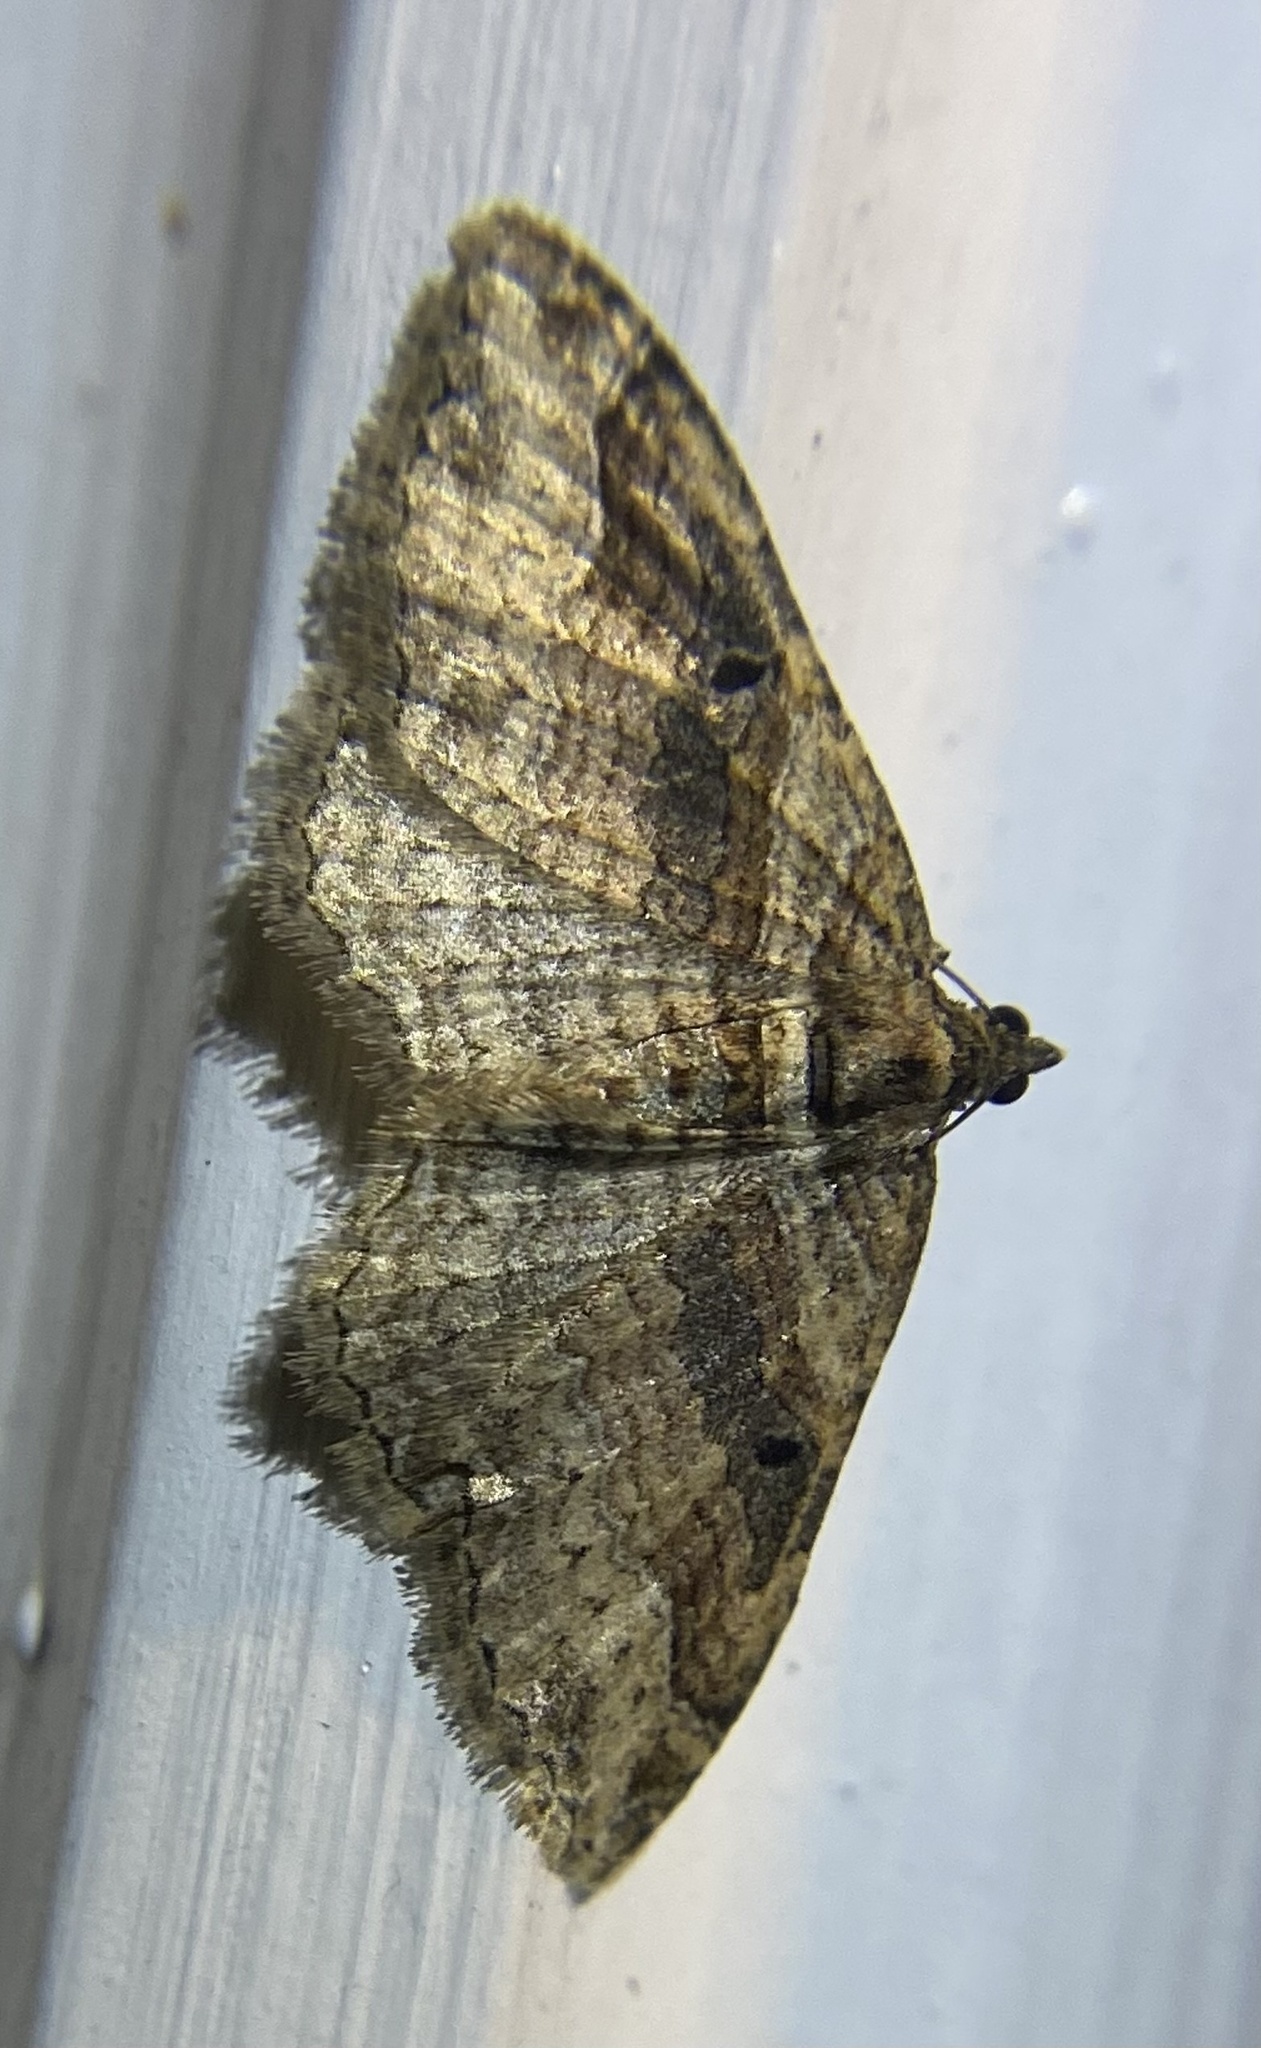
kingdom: Animalia
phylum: Arthropoda
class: Insecta
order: Lepidoptera
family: Geometridae
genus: Costaconvexa
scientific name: Costaconvexa centrostrigaria
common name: Bent-line carpet
